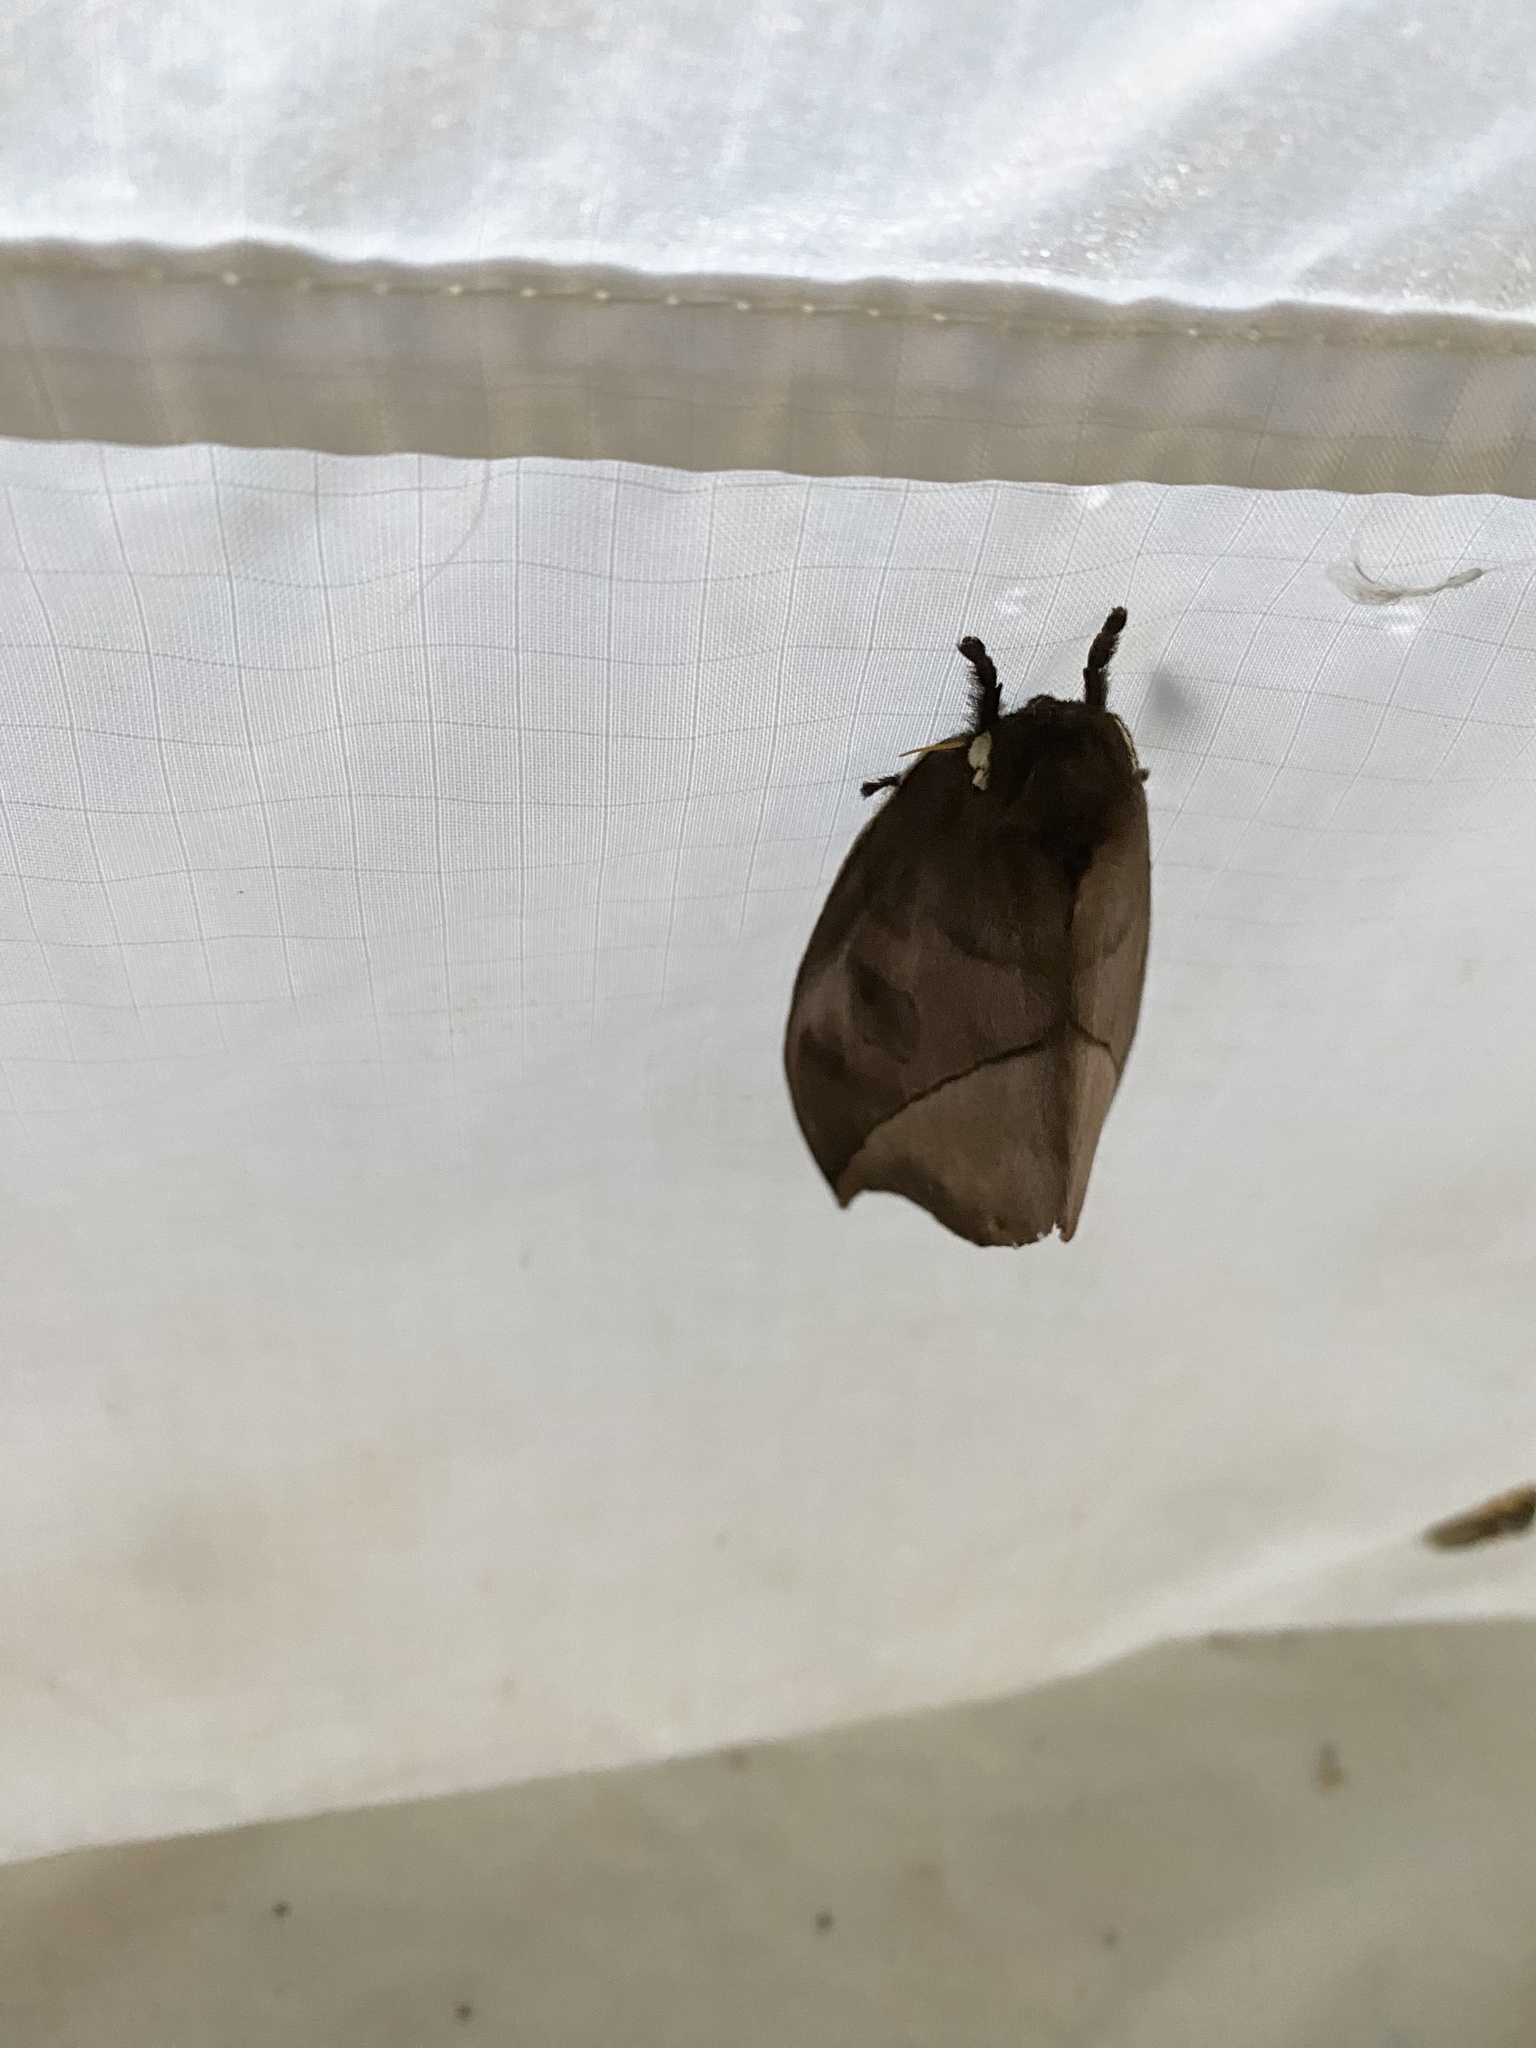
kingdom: Animalia
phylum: Arthropoda
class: Insecta
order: Lepidoptera
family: Saturniidae
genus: Automeris
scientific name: Automeris zugana
